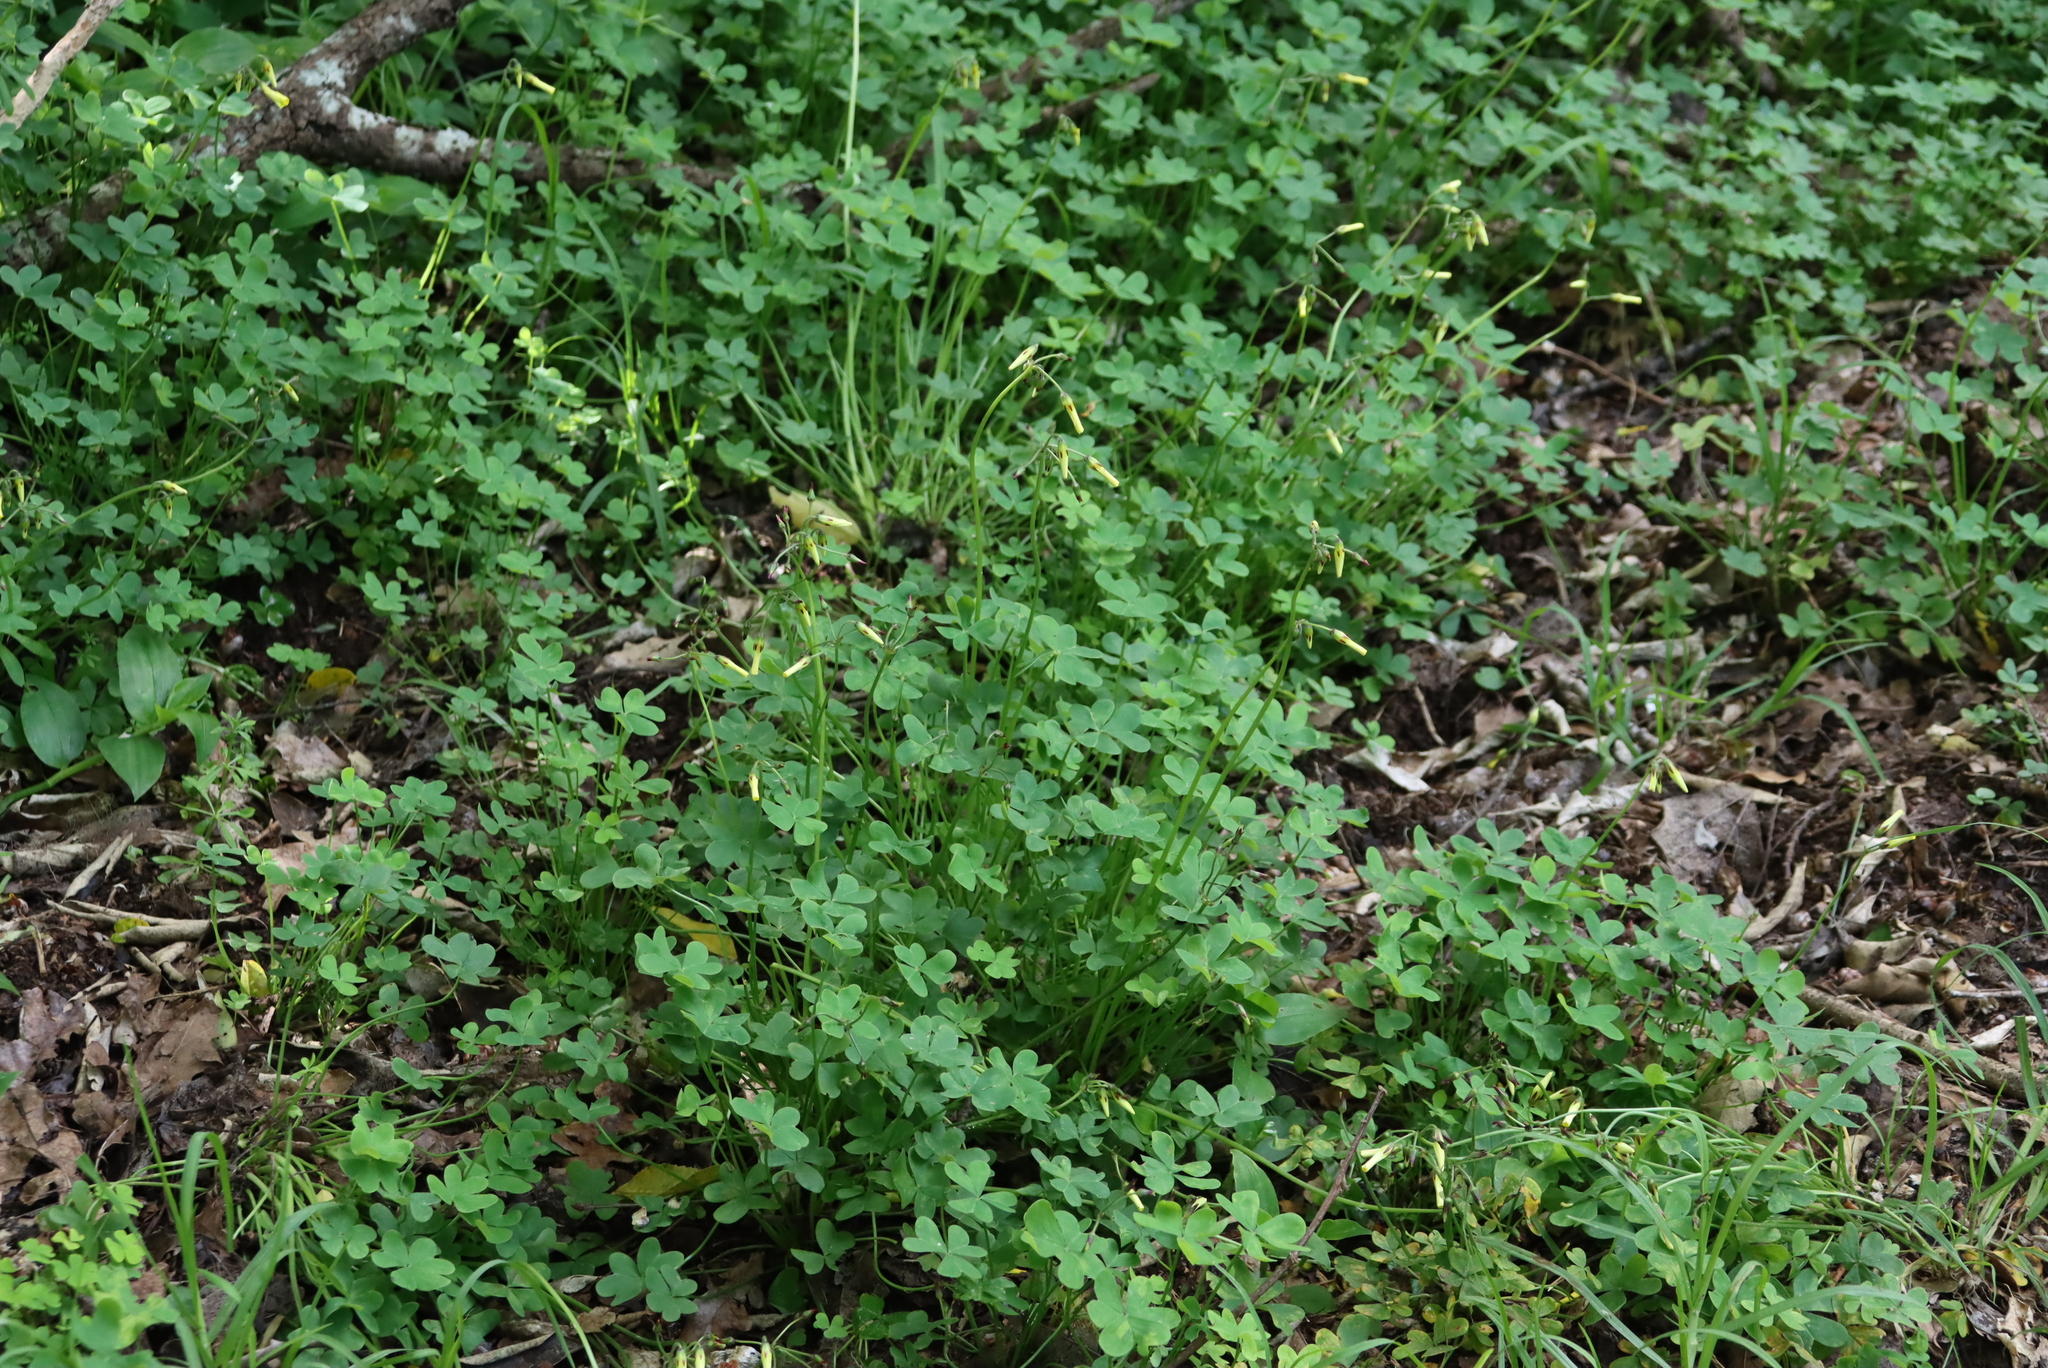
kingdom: Plantae
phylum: Tracheophyta
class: Magnoliopsida
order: Oxalidales
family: Oxalidaceae
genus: Oxalis
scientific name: Oxalis pes-caprae
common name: Bermuda-buttercup
